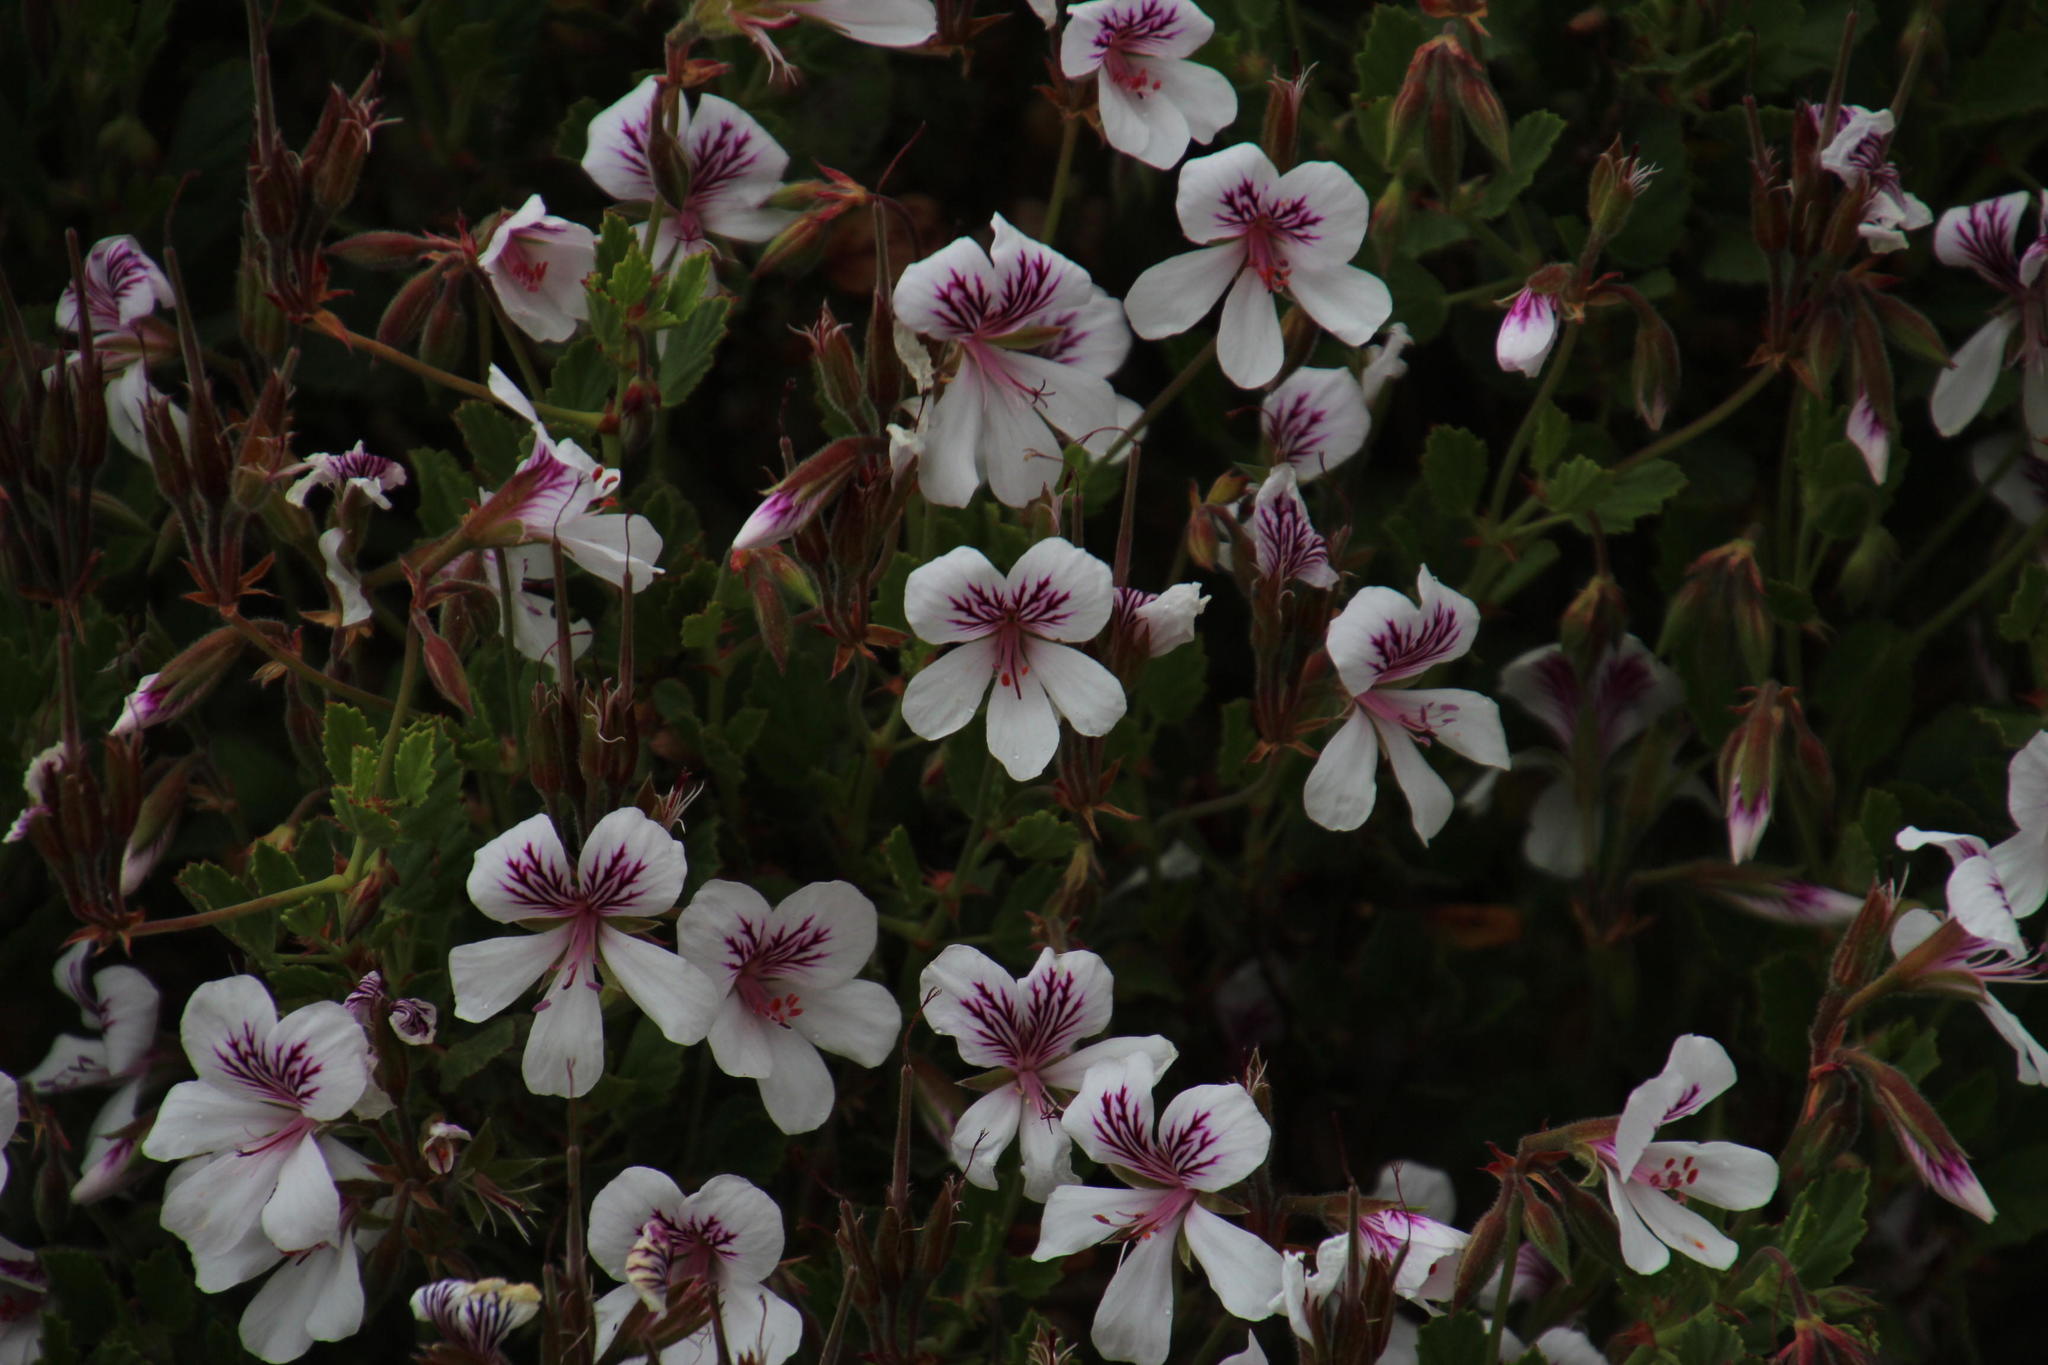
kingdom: Plantae
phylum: Tracheophyta
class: Magnoliopsida
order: Geraniales
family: Geraniaceae
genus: Pelargonium
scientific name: Pelargonium betulinum
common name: Birch-leaf pelargonium
